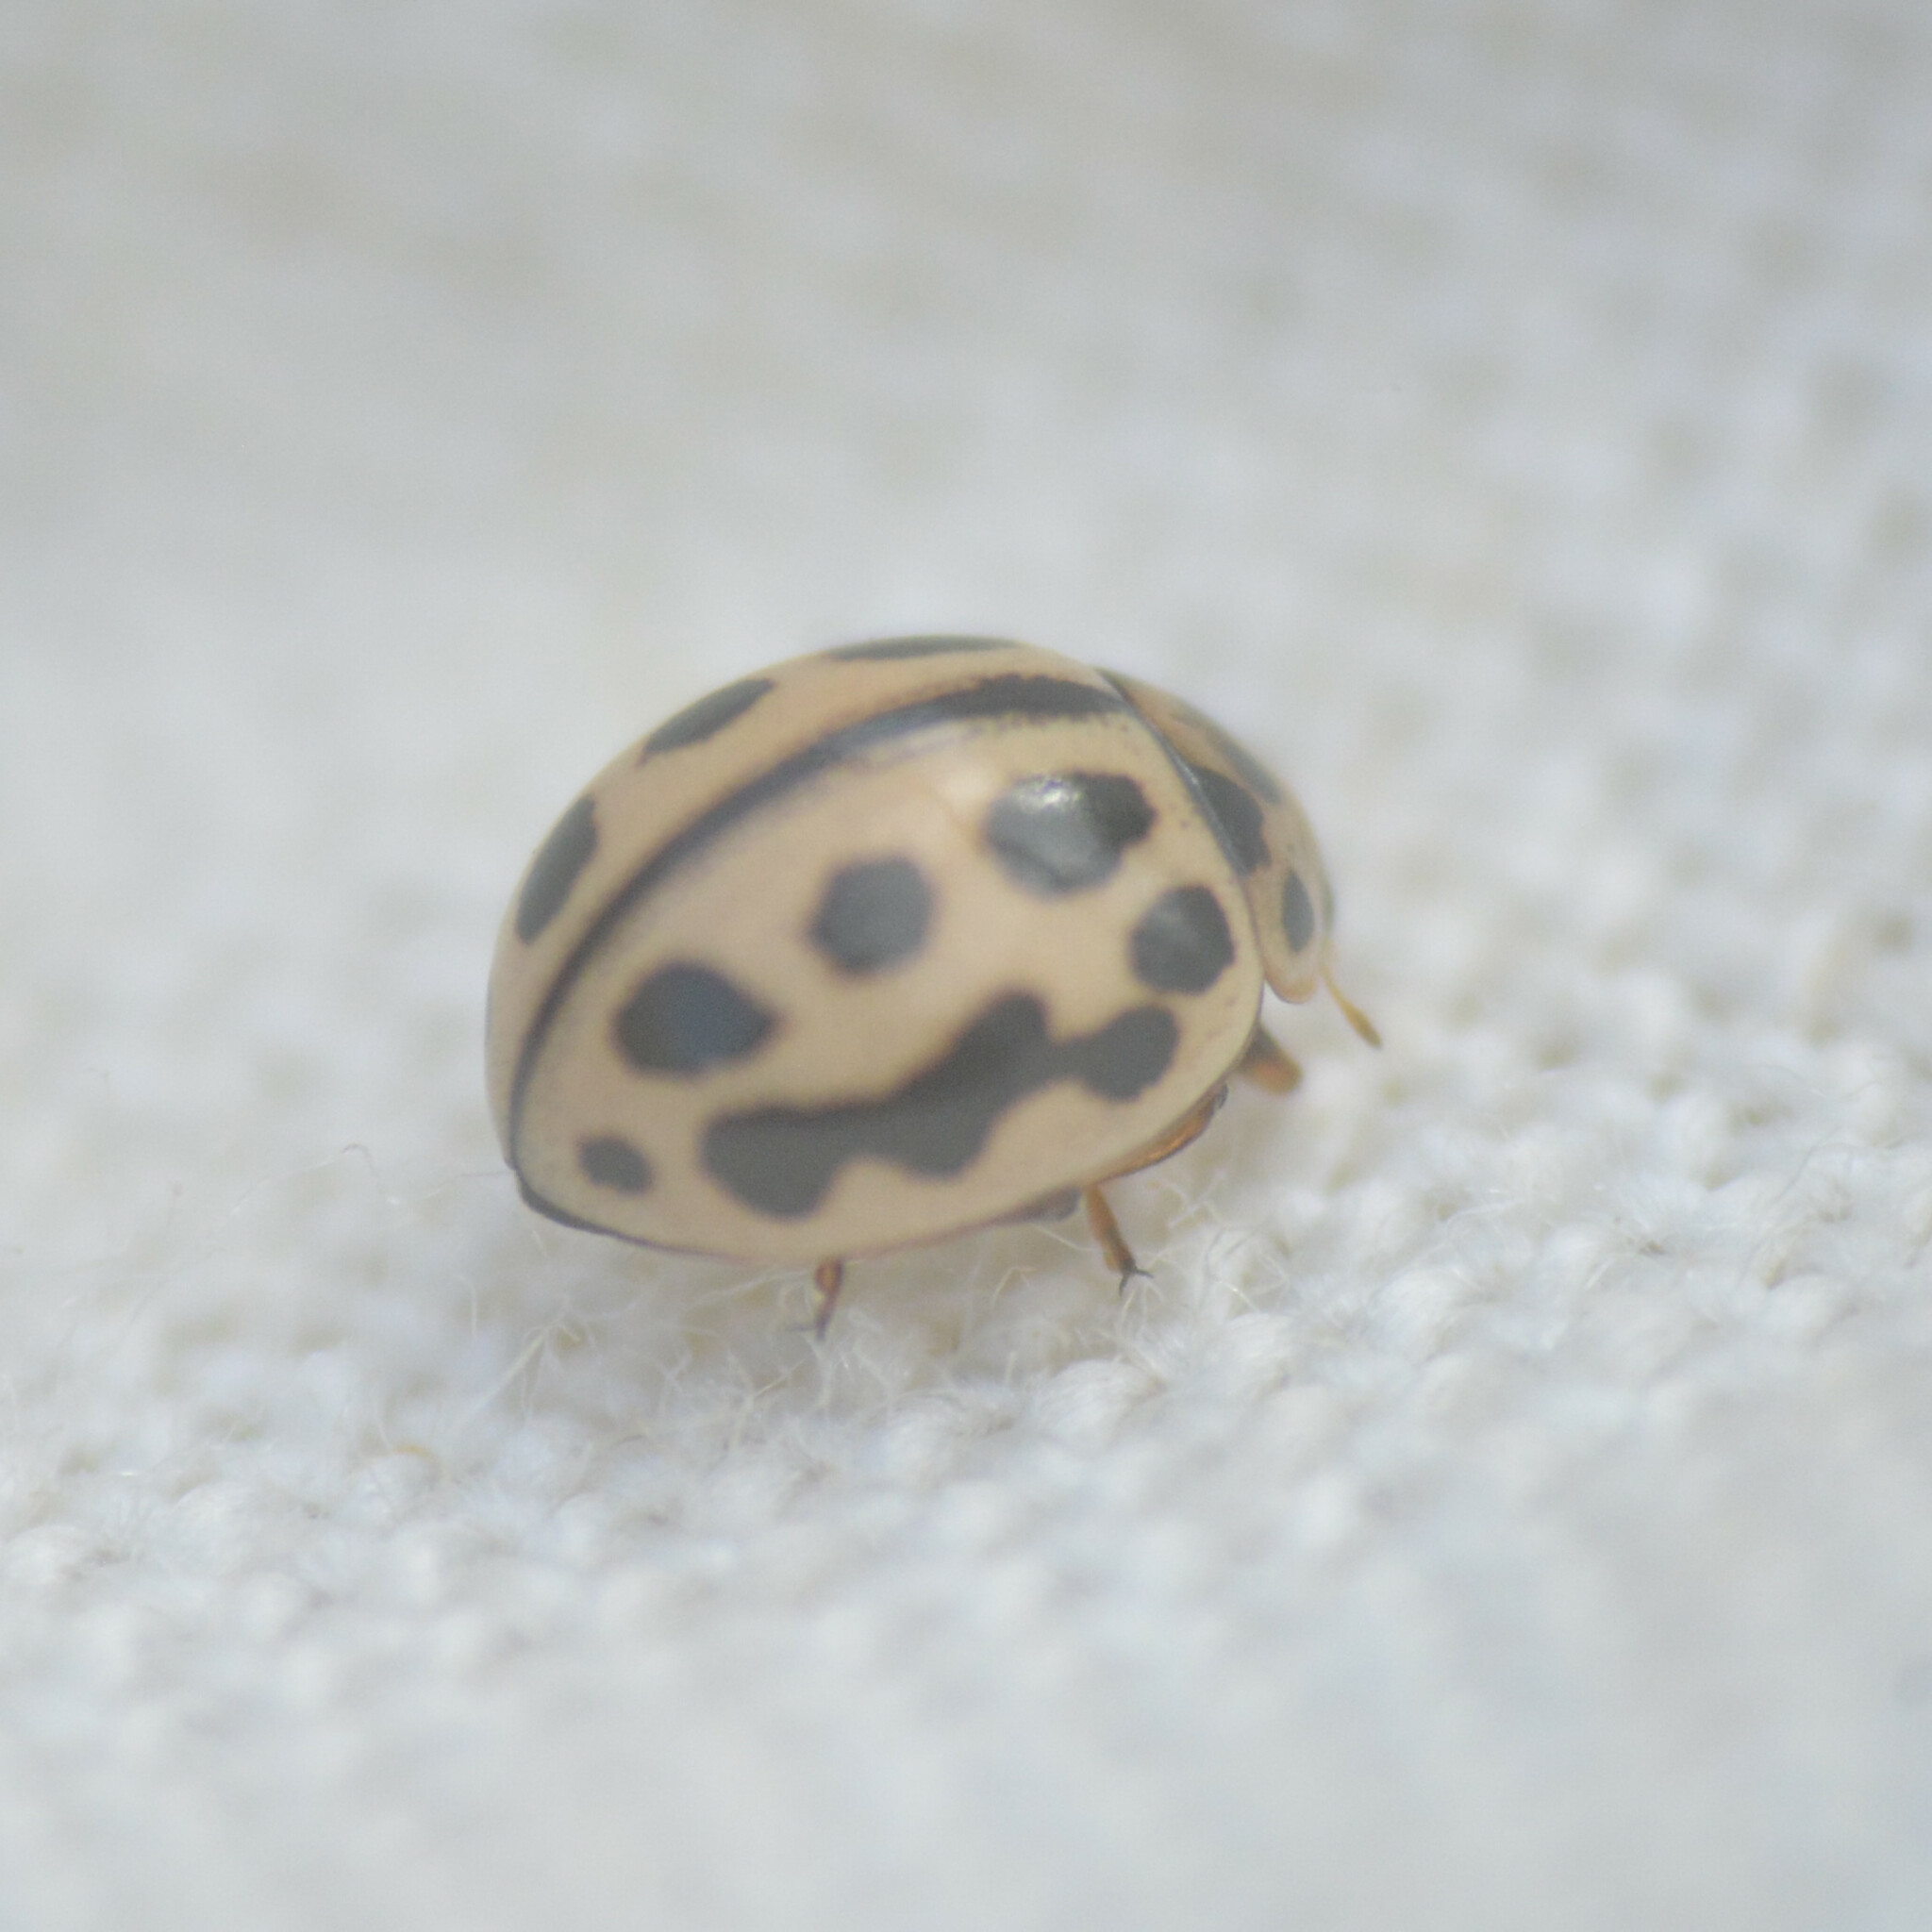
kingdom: Animalia
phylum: Arthropoda
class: Insecta
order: Coleoptera
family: Coccinellidae
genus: Tytthaspis
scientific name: Tytthaspis sedecimpunctata
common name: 16-spot ladybird
